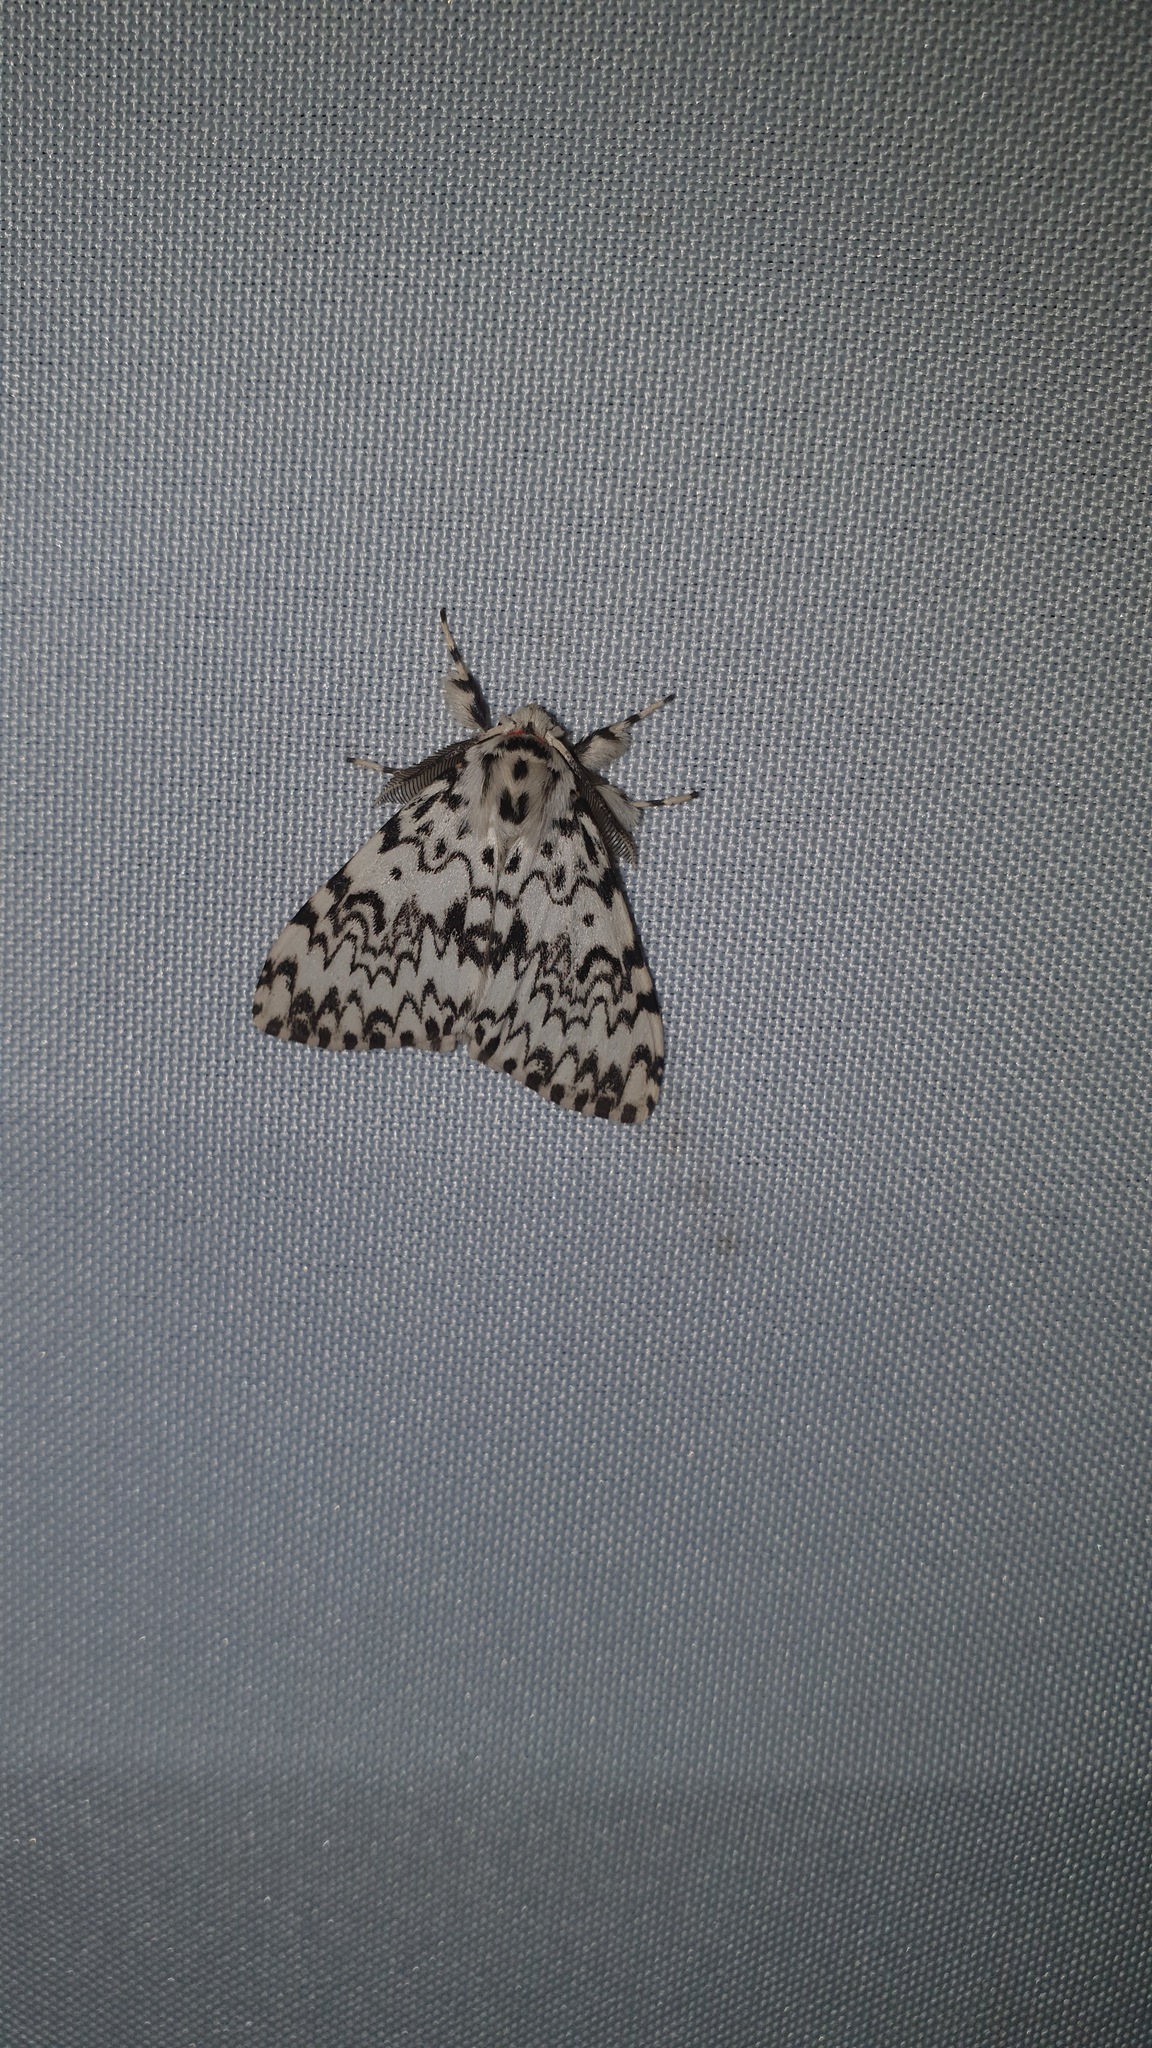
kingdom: Animalia
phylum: Arthropoda
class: Insecta
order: Lepidoptera
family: Erebidae
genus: Lymantria
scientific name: Lymantria monacha
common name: Black arches
